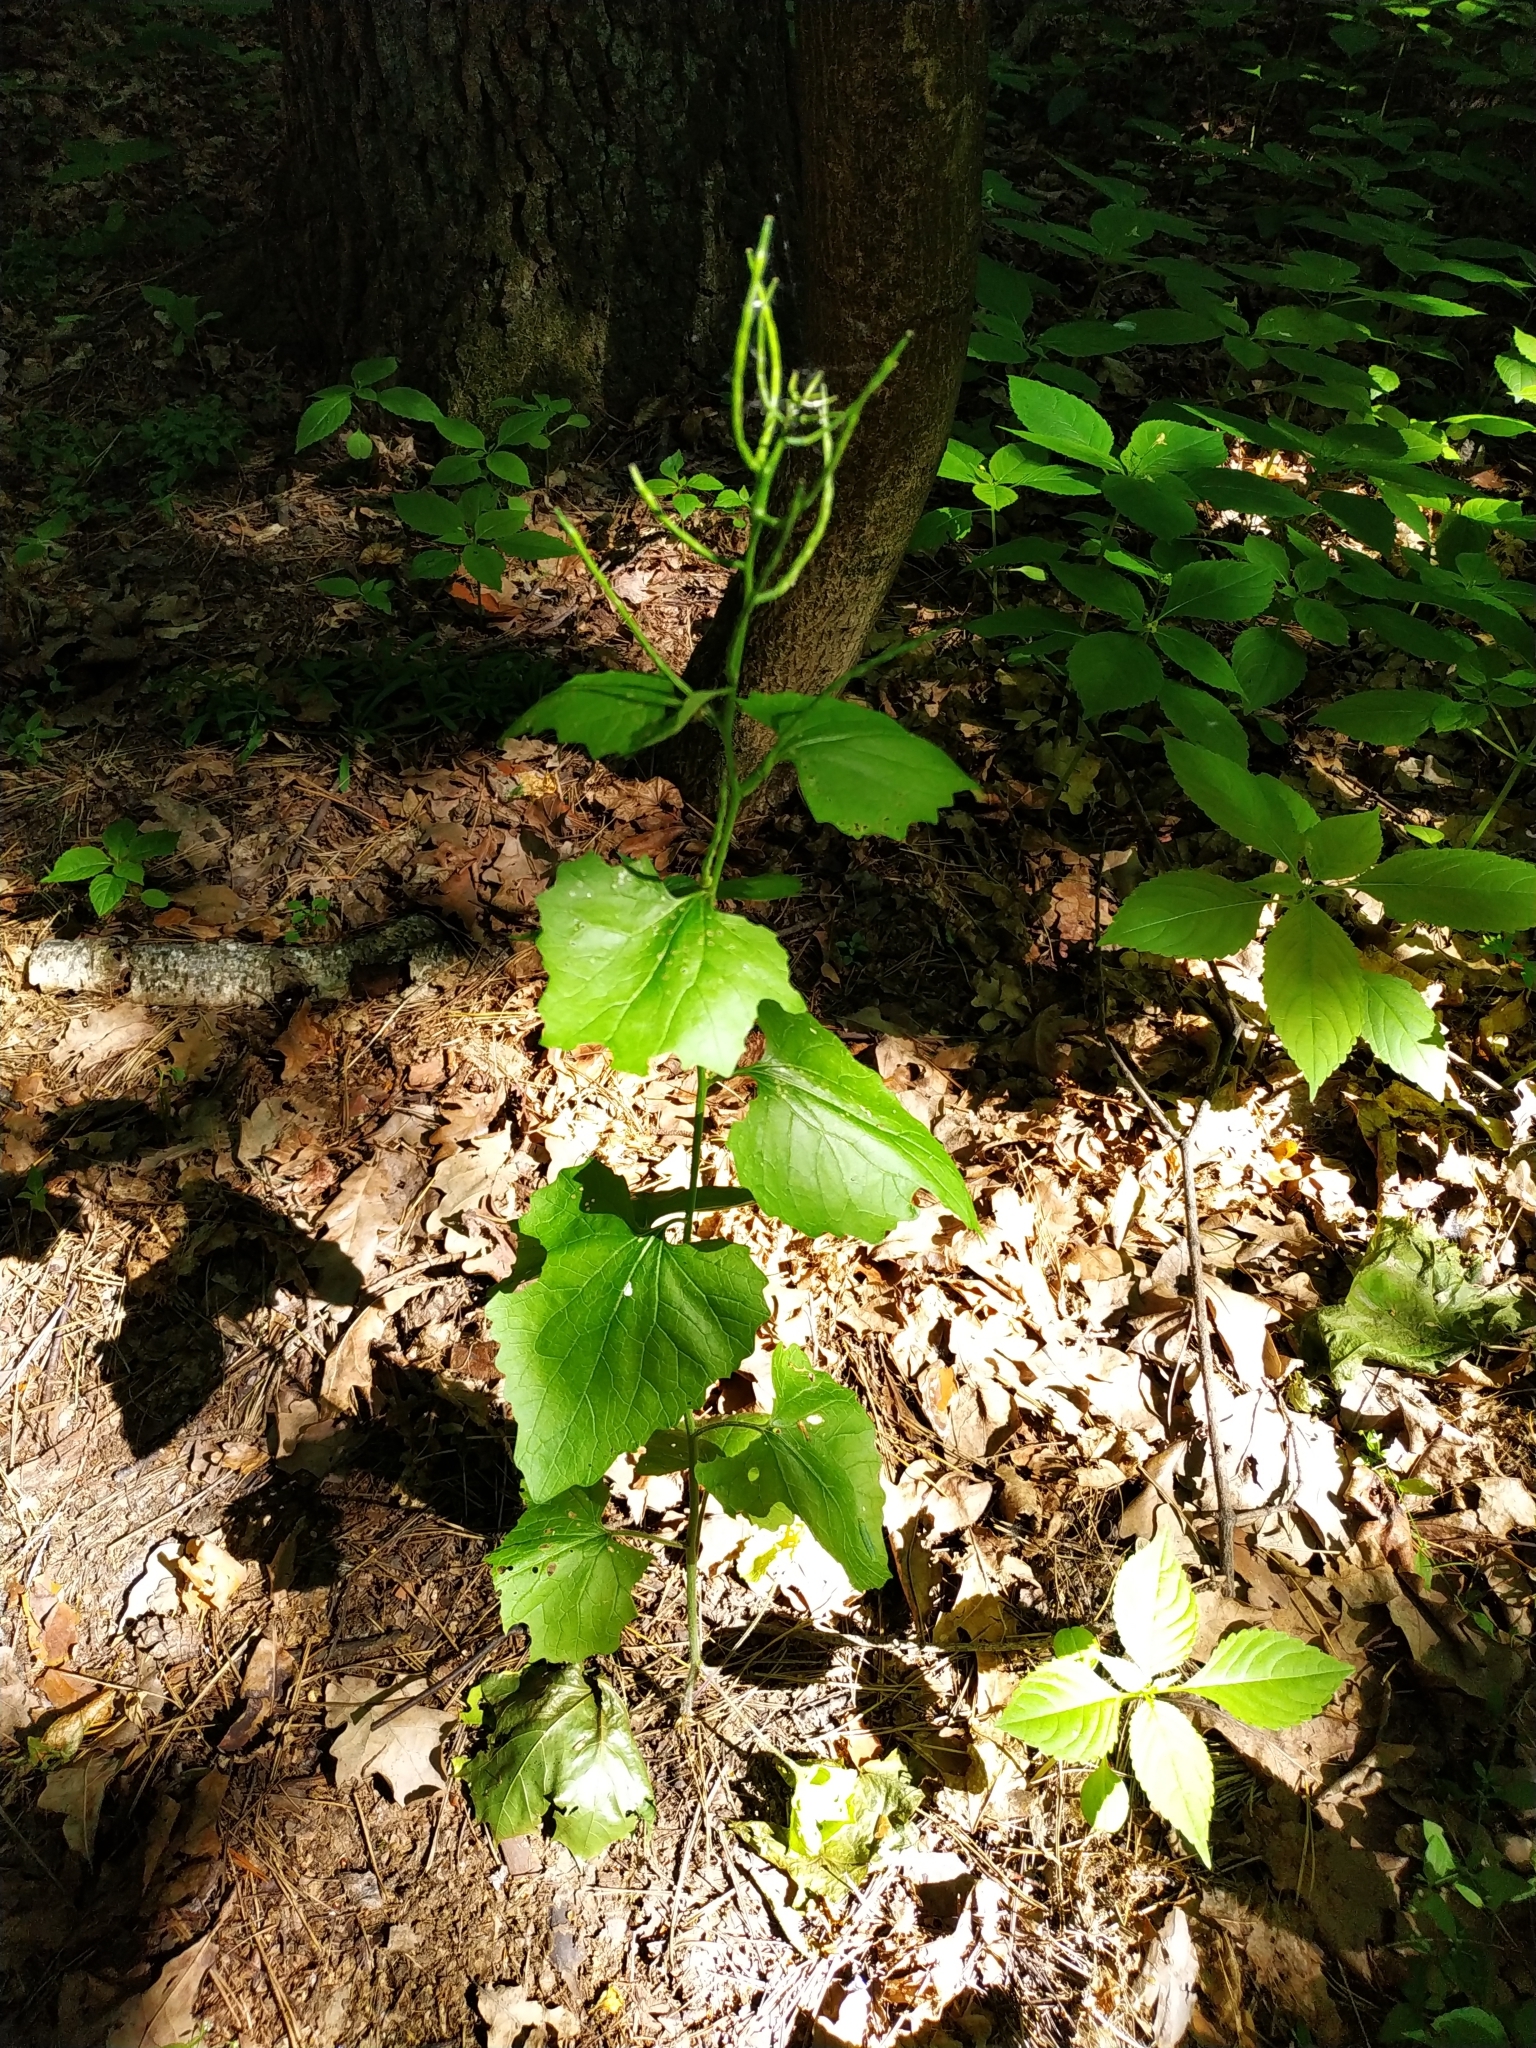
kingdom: Plantae
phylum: Tracheophyta
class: Magnoliopsida
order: Brassicales
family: Brassicaceae
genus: Alliaria
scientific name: Alliaria petiolata
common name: Garlic mustard
